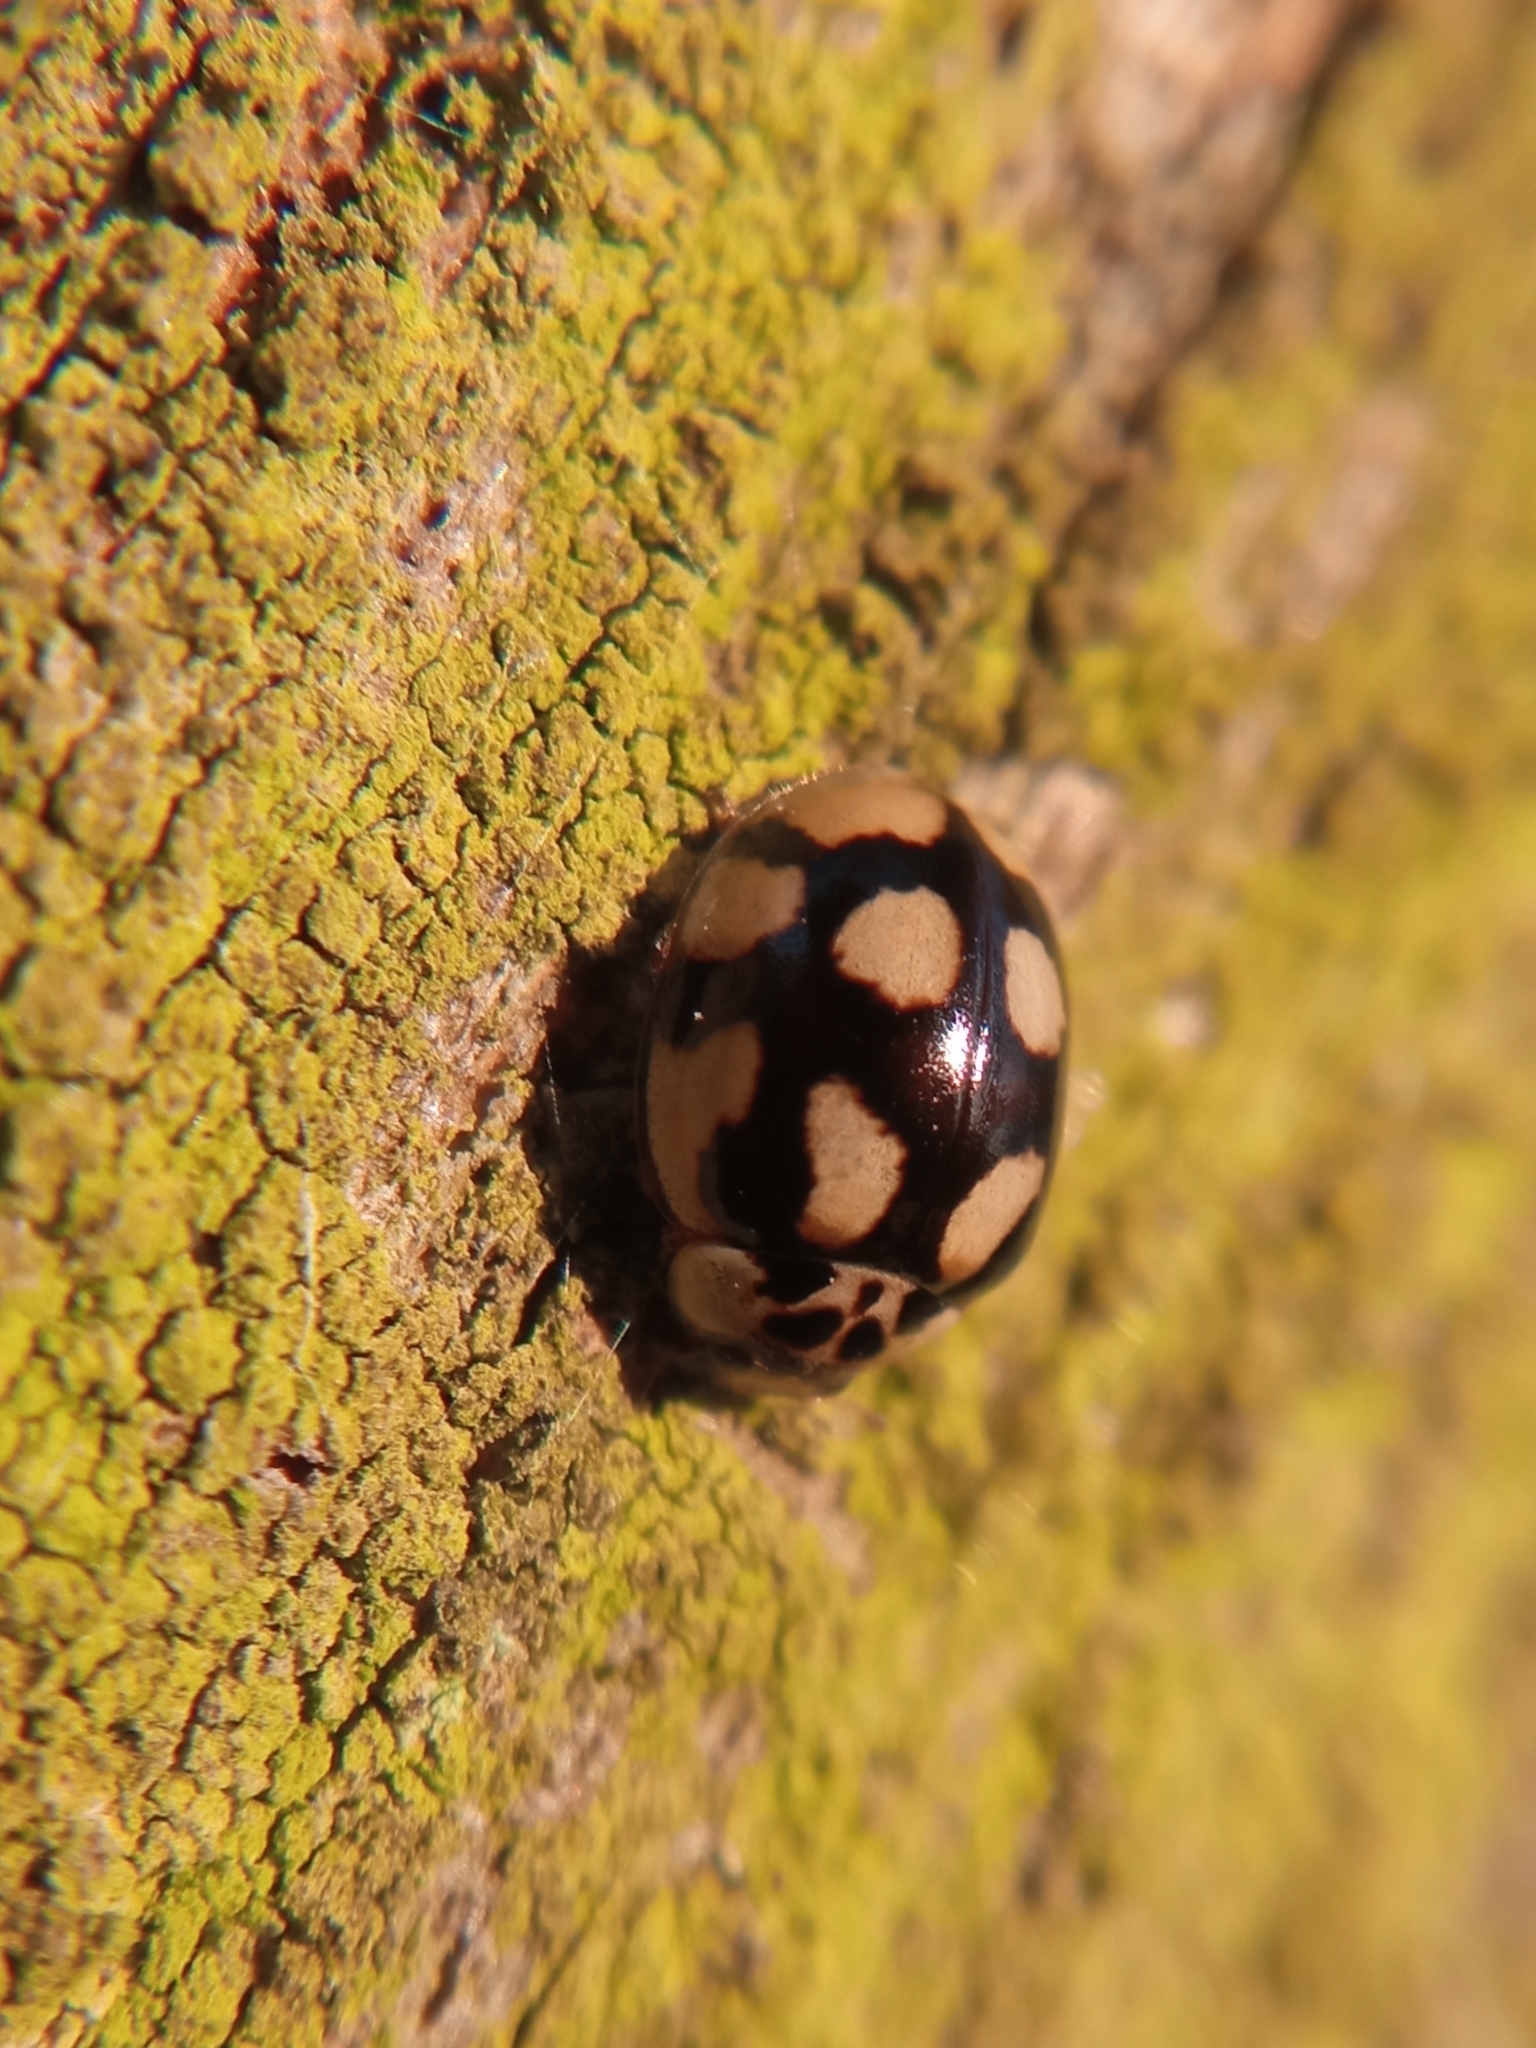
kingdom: Animalia
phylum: Arthropoda
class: Insecta
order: Coleoptera
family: Coccinellidae
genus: Adalia
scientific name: Adalia decempunctata
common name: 10-spot ladybird
